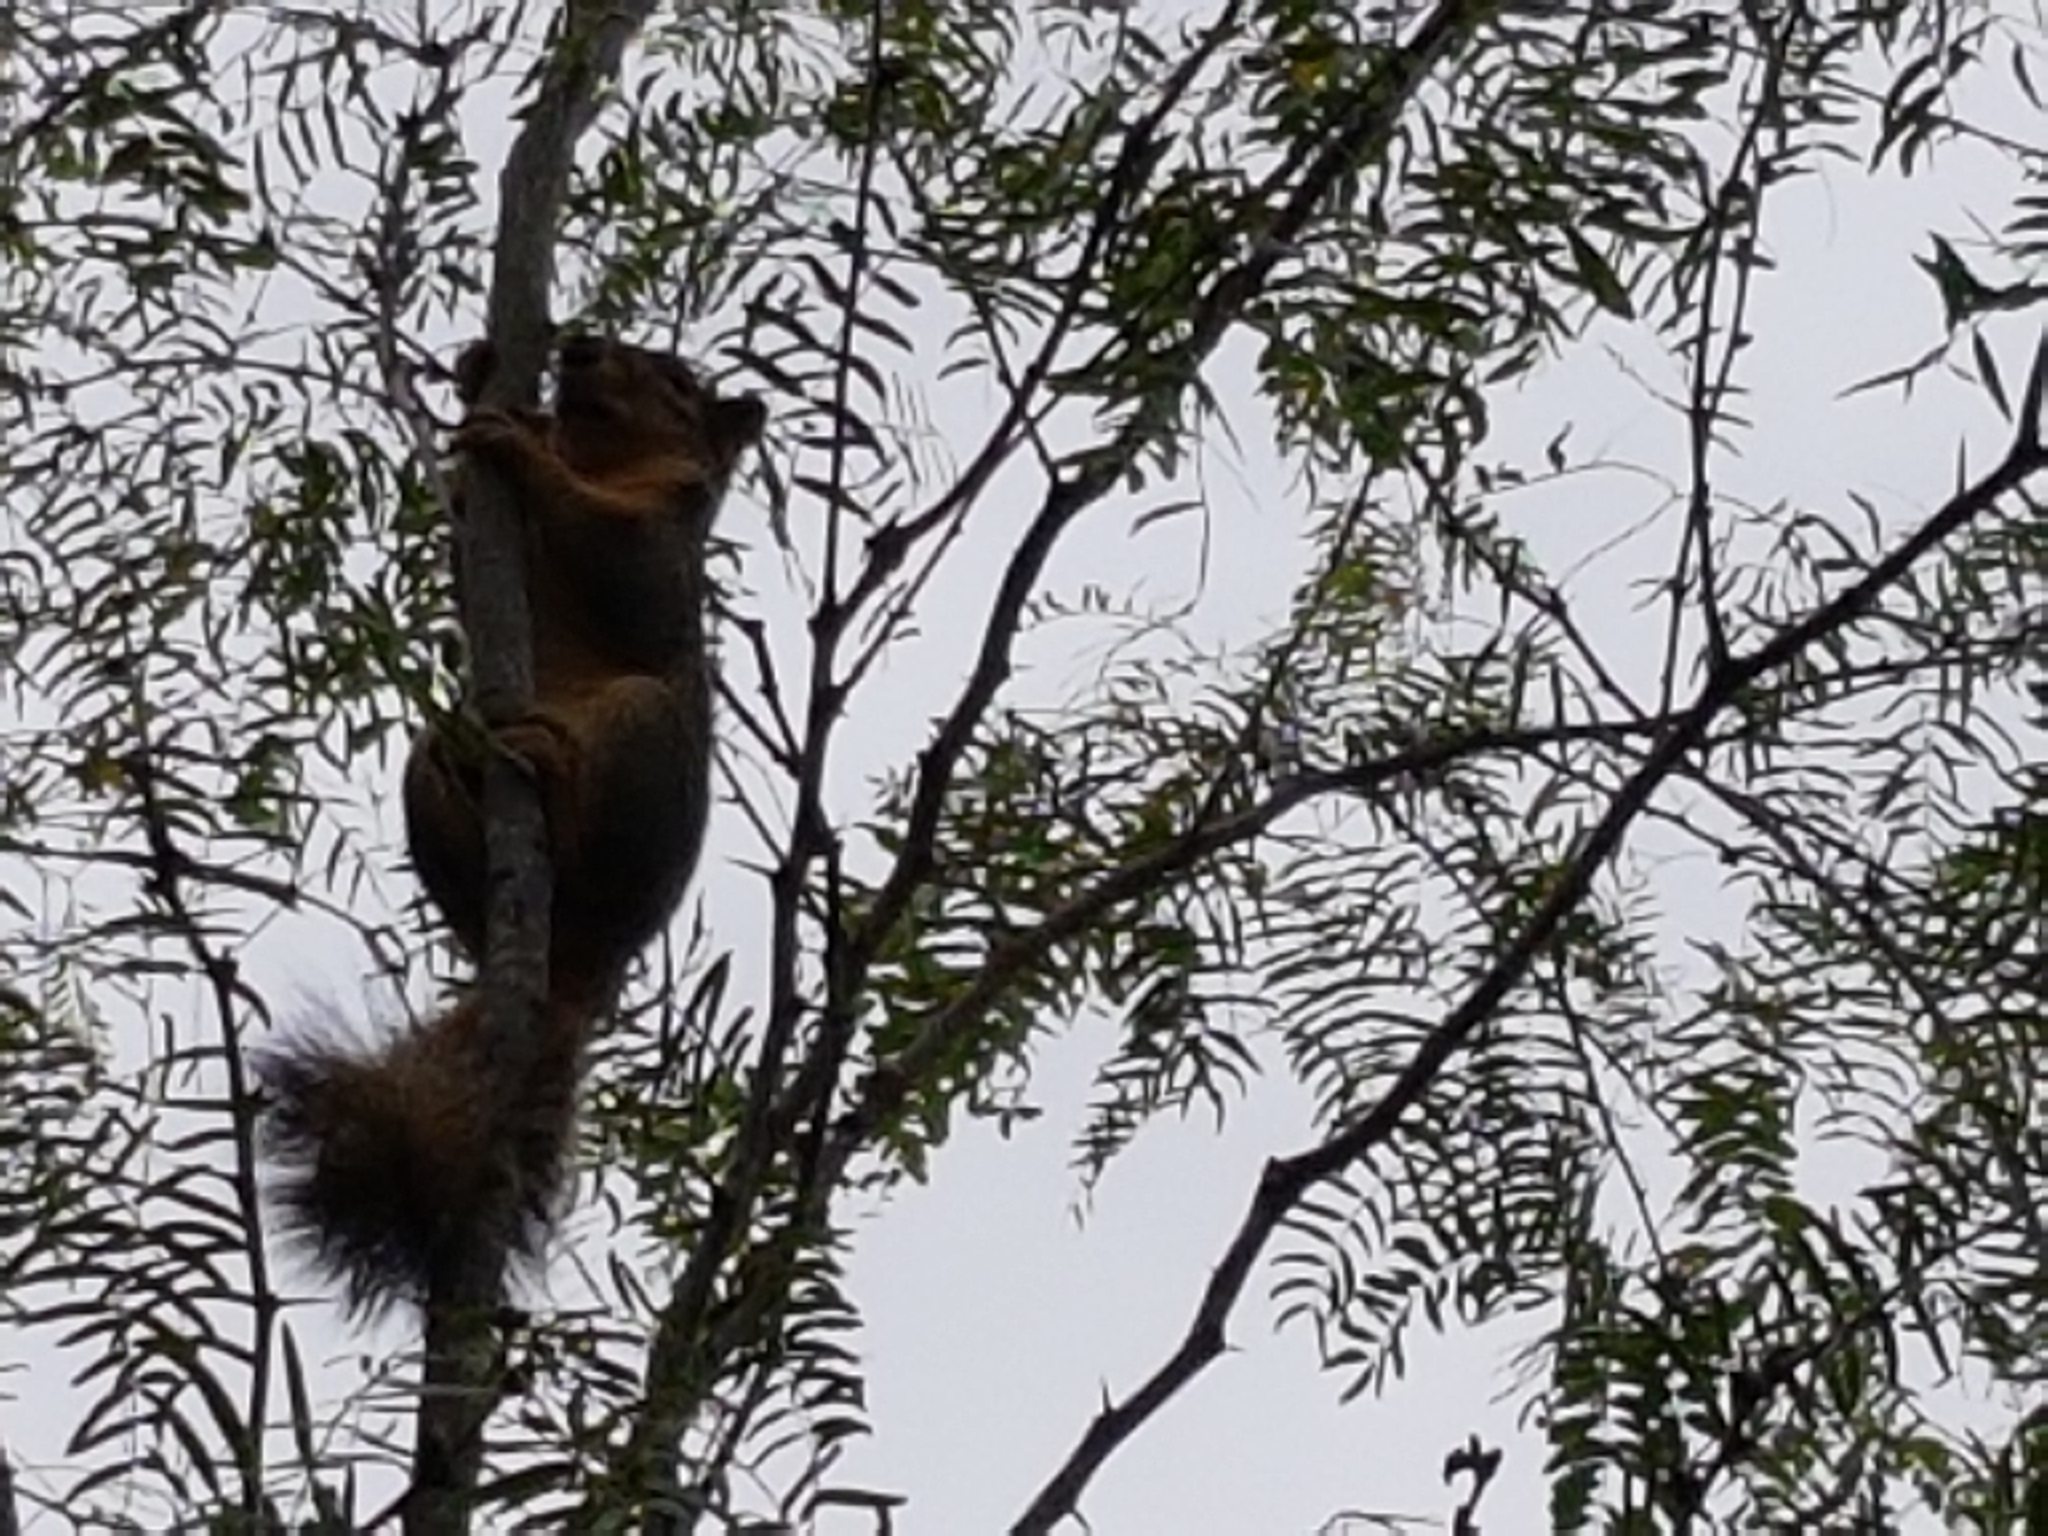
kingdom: Animalia
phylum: Chordata
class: Mammalia
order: Rodentia
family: Sciuridae
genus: Sciurus
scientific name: Sciurus niger
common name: Fox squirrel
